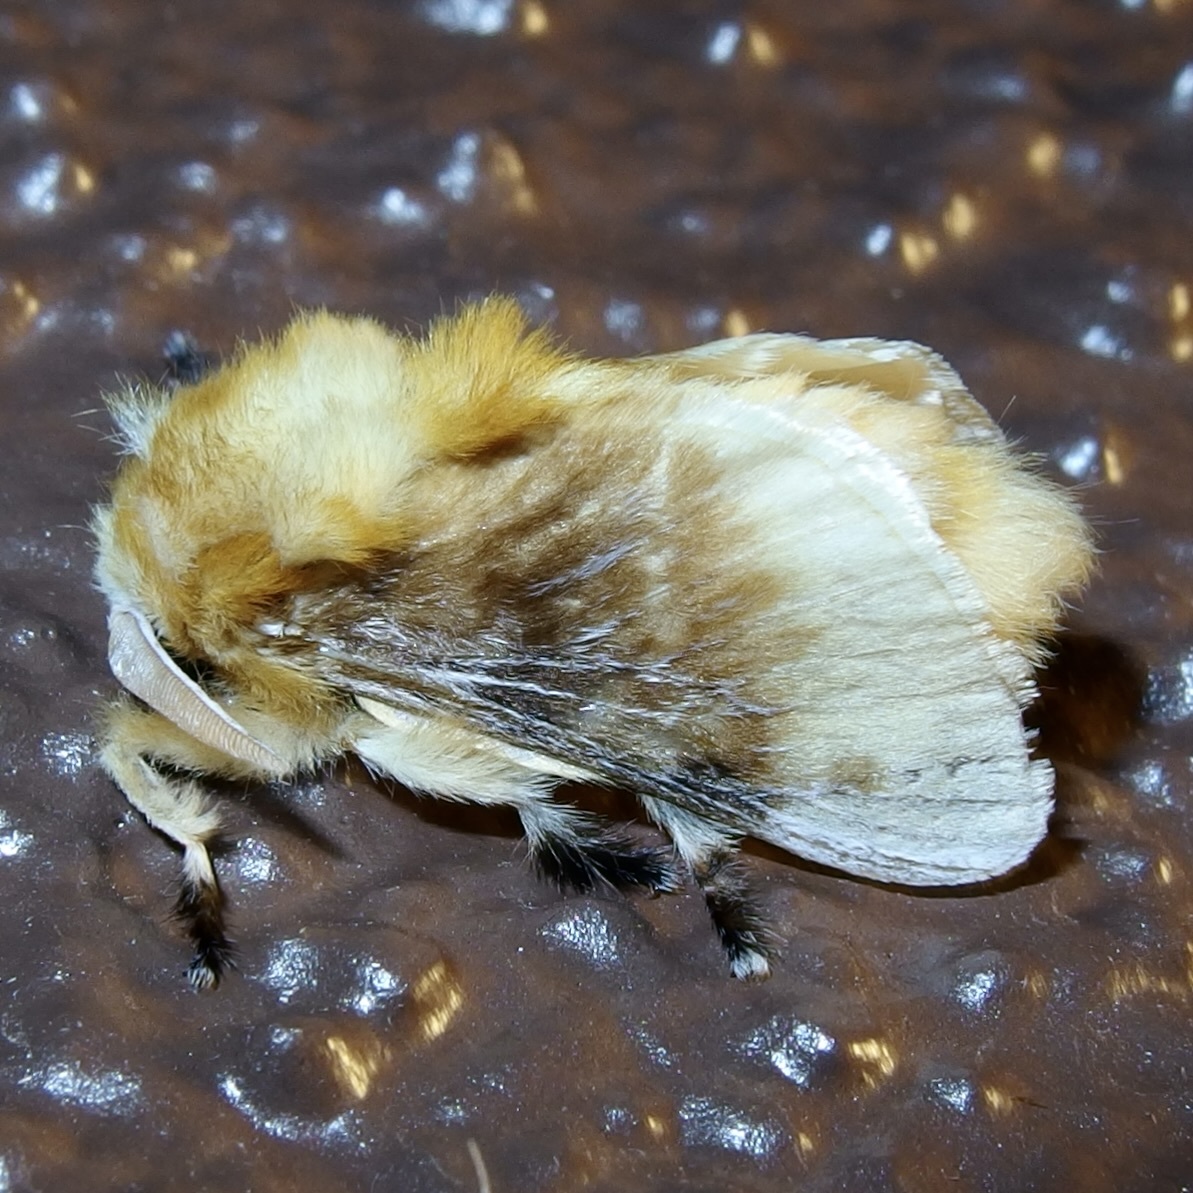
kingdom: Animalia
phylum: Arthropoda
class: Insecta
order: Lepidoptera
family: Megalopygidae
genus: Megalopyge
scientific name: Megalopyge opercularis
